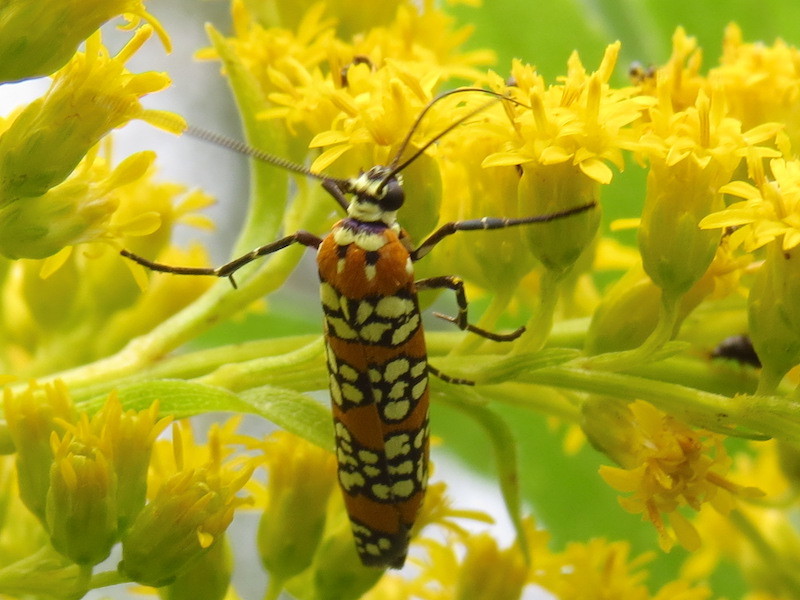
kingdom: Animalia
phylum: Arthropoda
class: Insecta
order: Lepidoptera
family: Attevidae
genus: Atteva
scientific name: Atteva punctella
